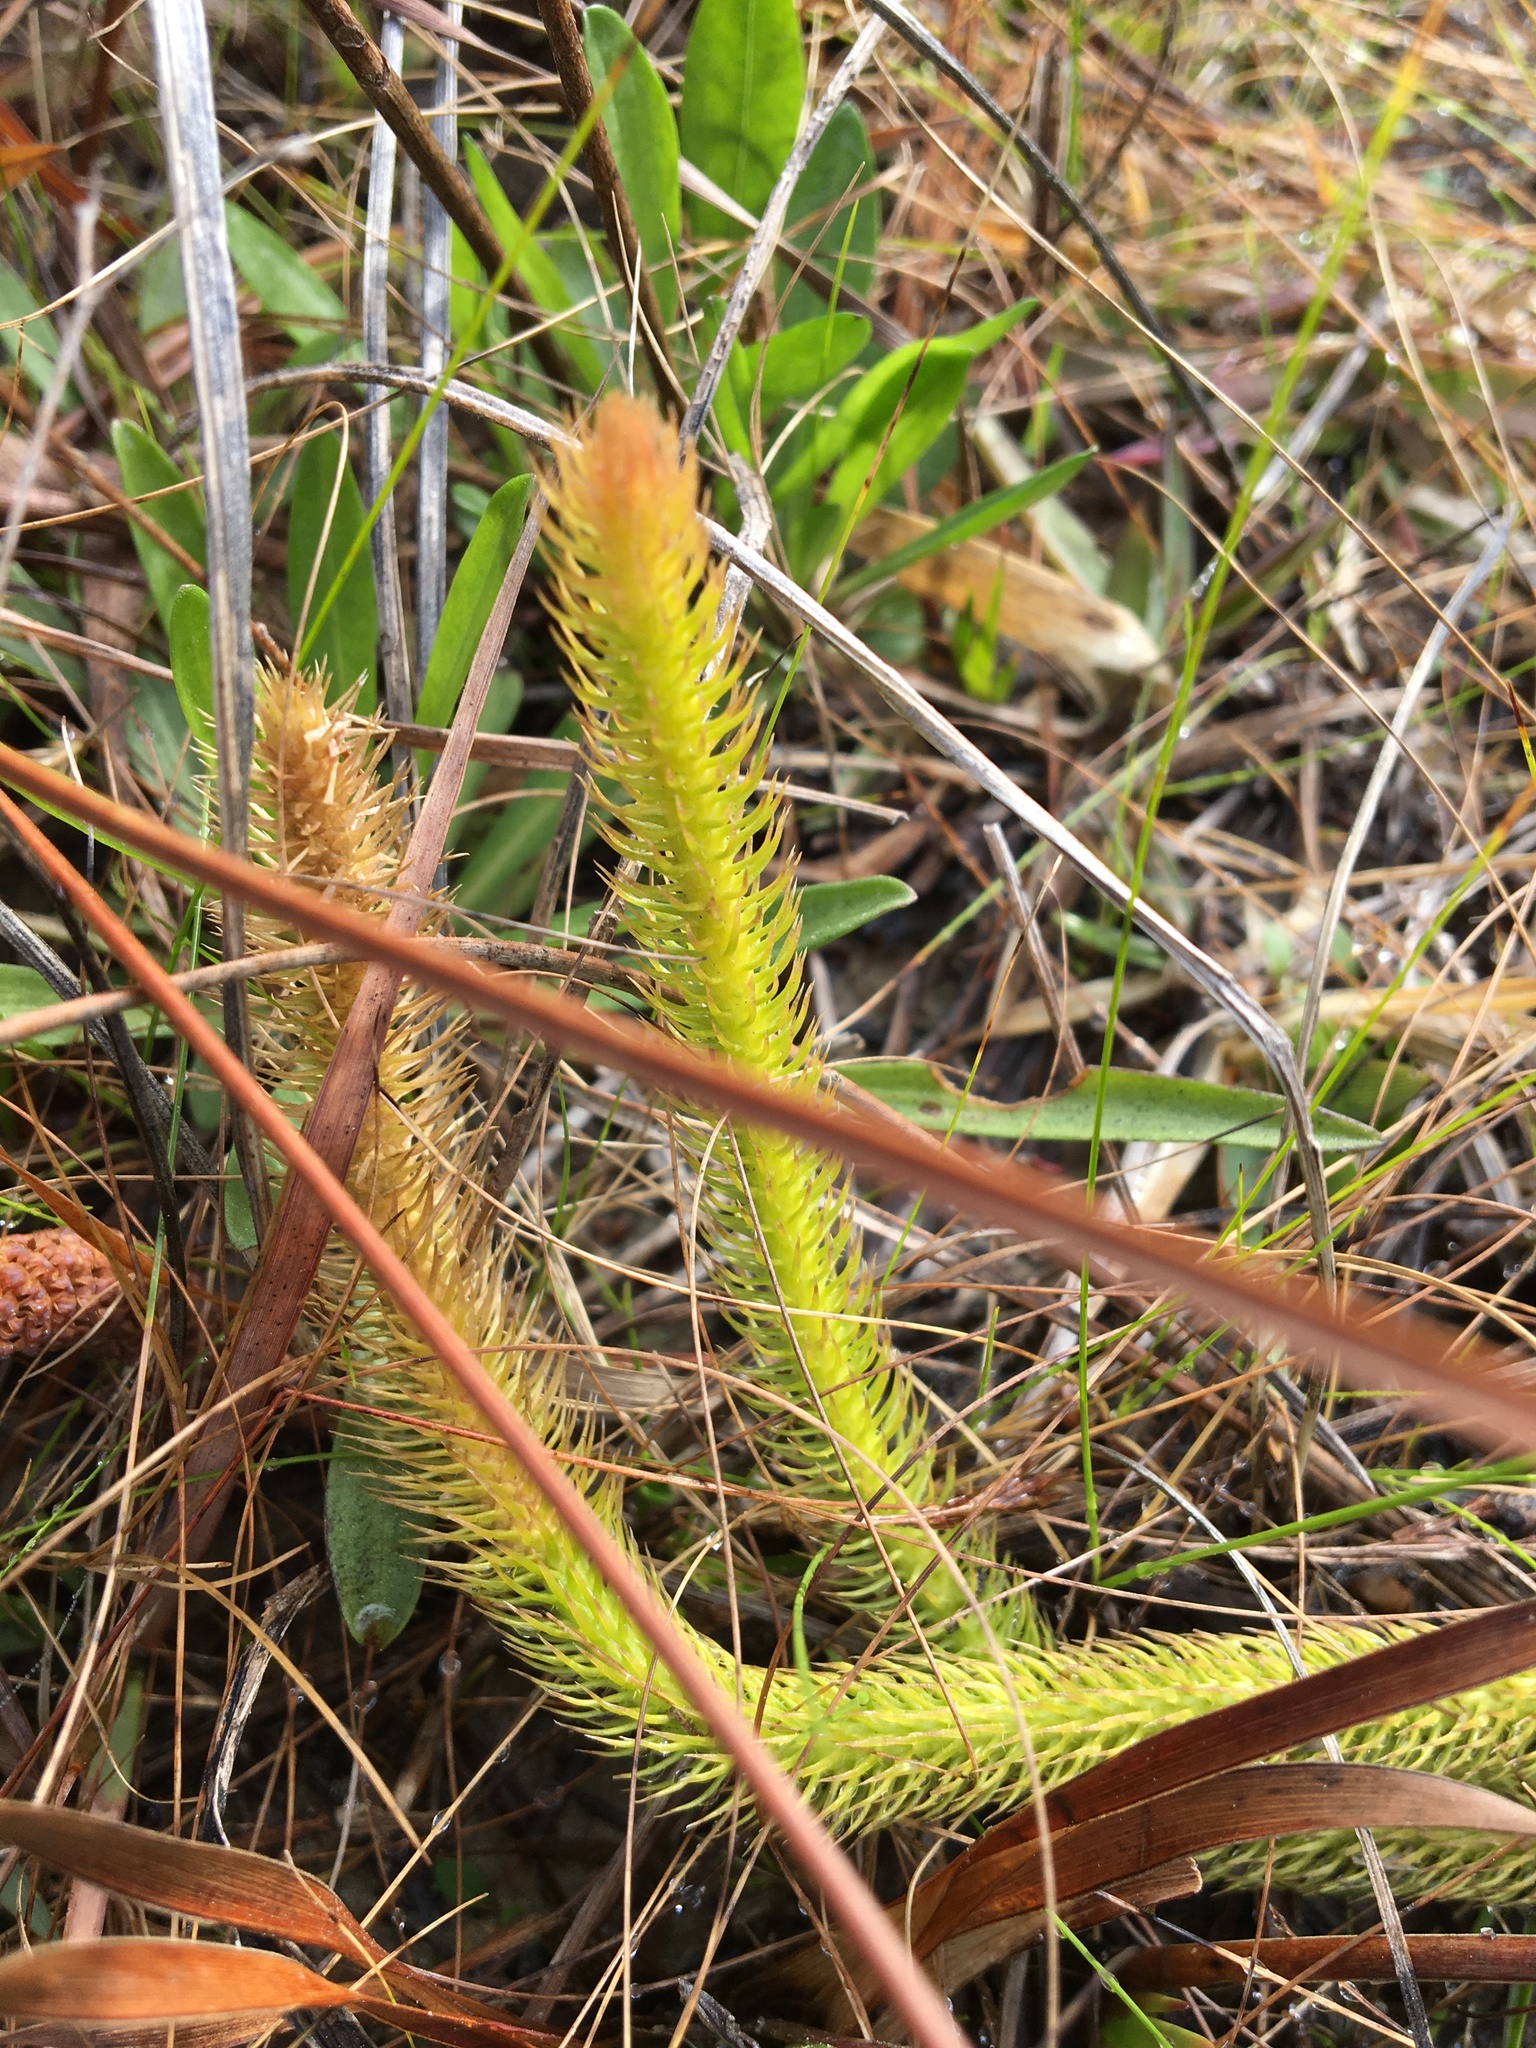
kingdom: Plantae
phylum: Tracheophyta
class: Lycopodiopsida
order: Lycopodiales
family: Lycopodiaceae
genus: Lycopodiella
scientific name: Lycopodiella alopecuroides
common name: Foxtail clubmoss
